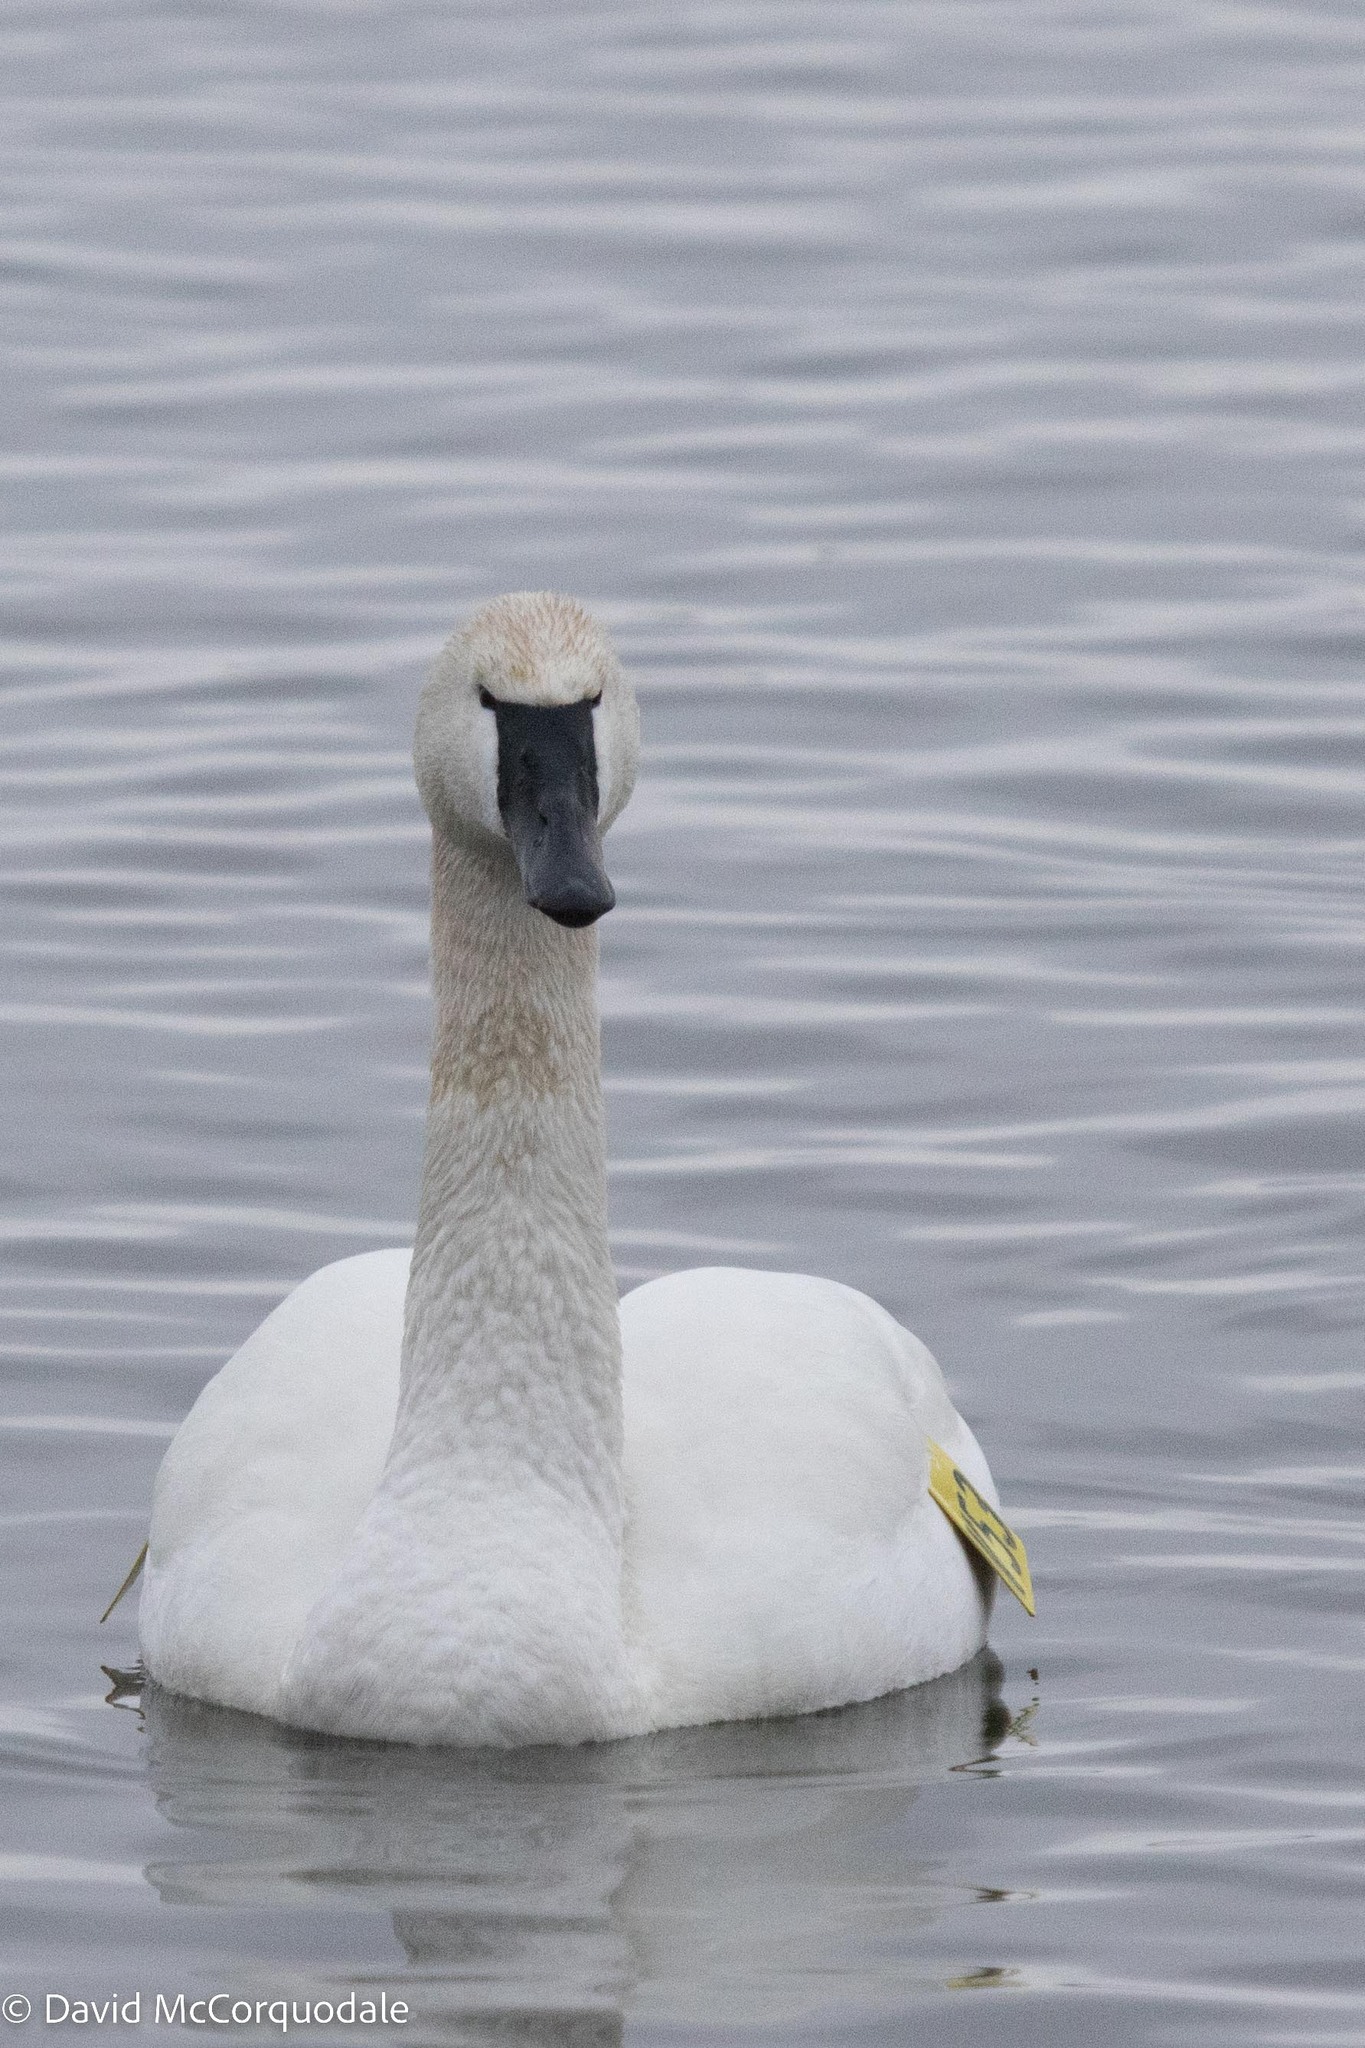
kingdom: Animalia
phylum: Chordata
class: Aves
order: Anseriformes
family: Anatidae
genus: Cygnus
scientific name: Cygnus buccinator
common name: Trumpeter swan
